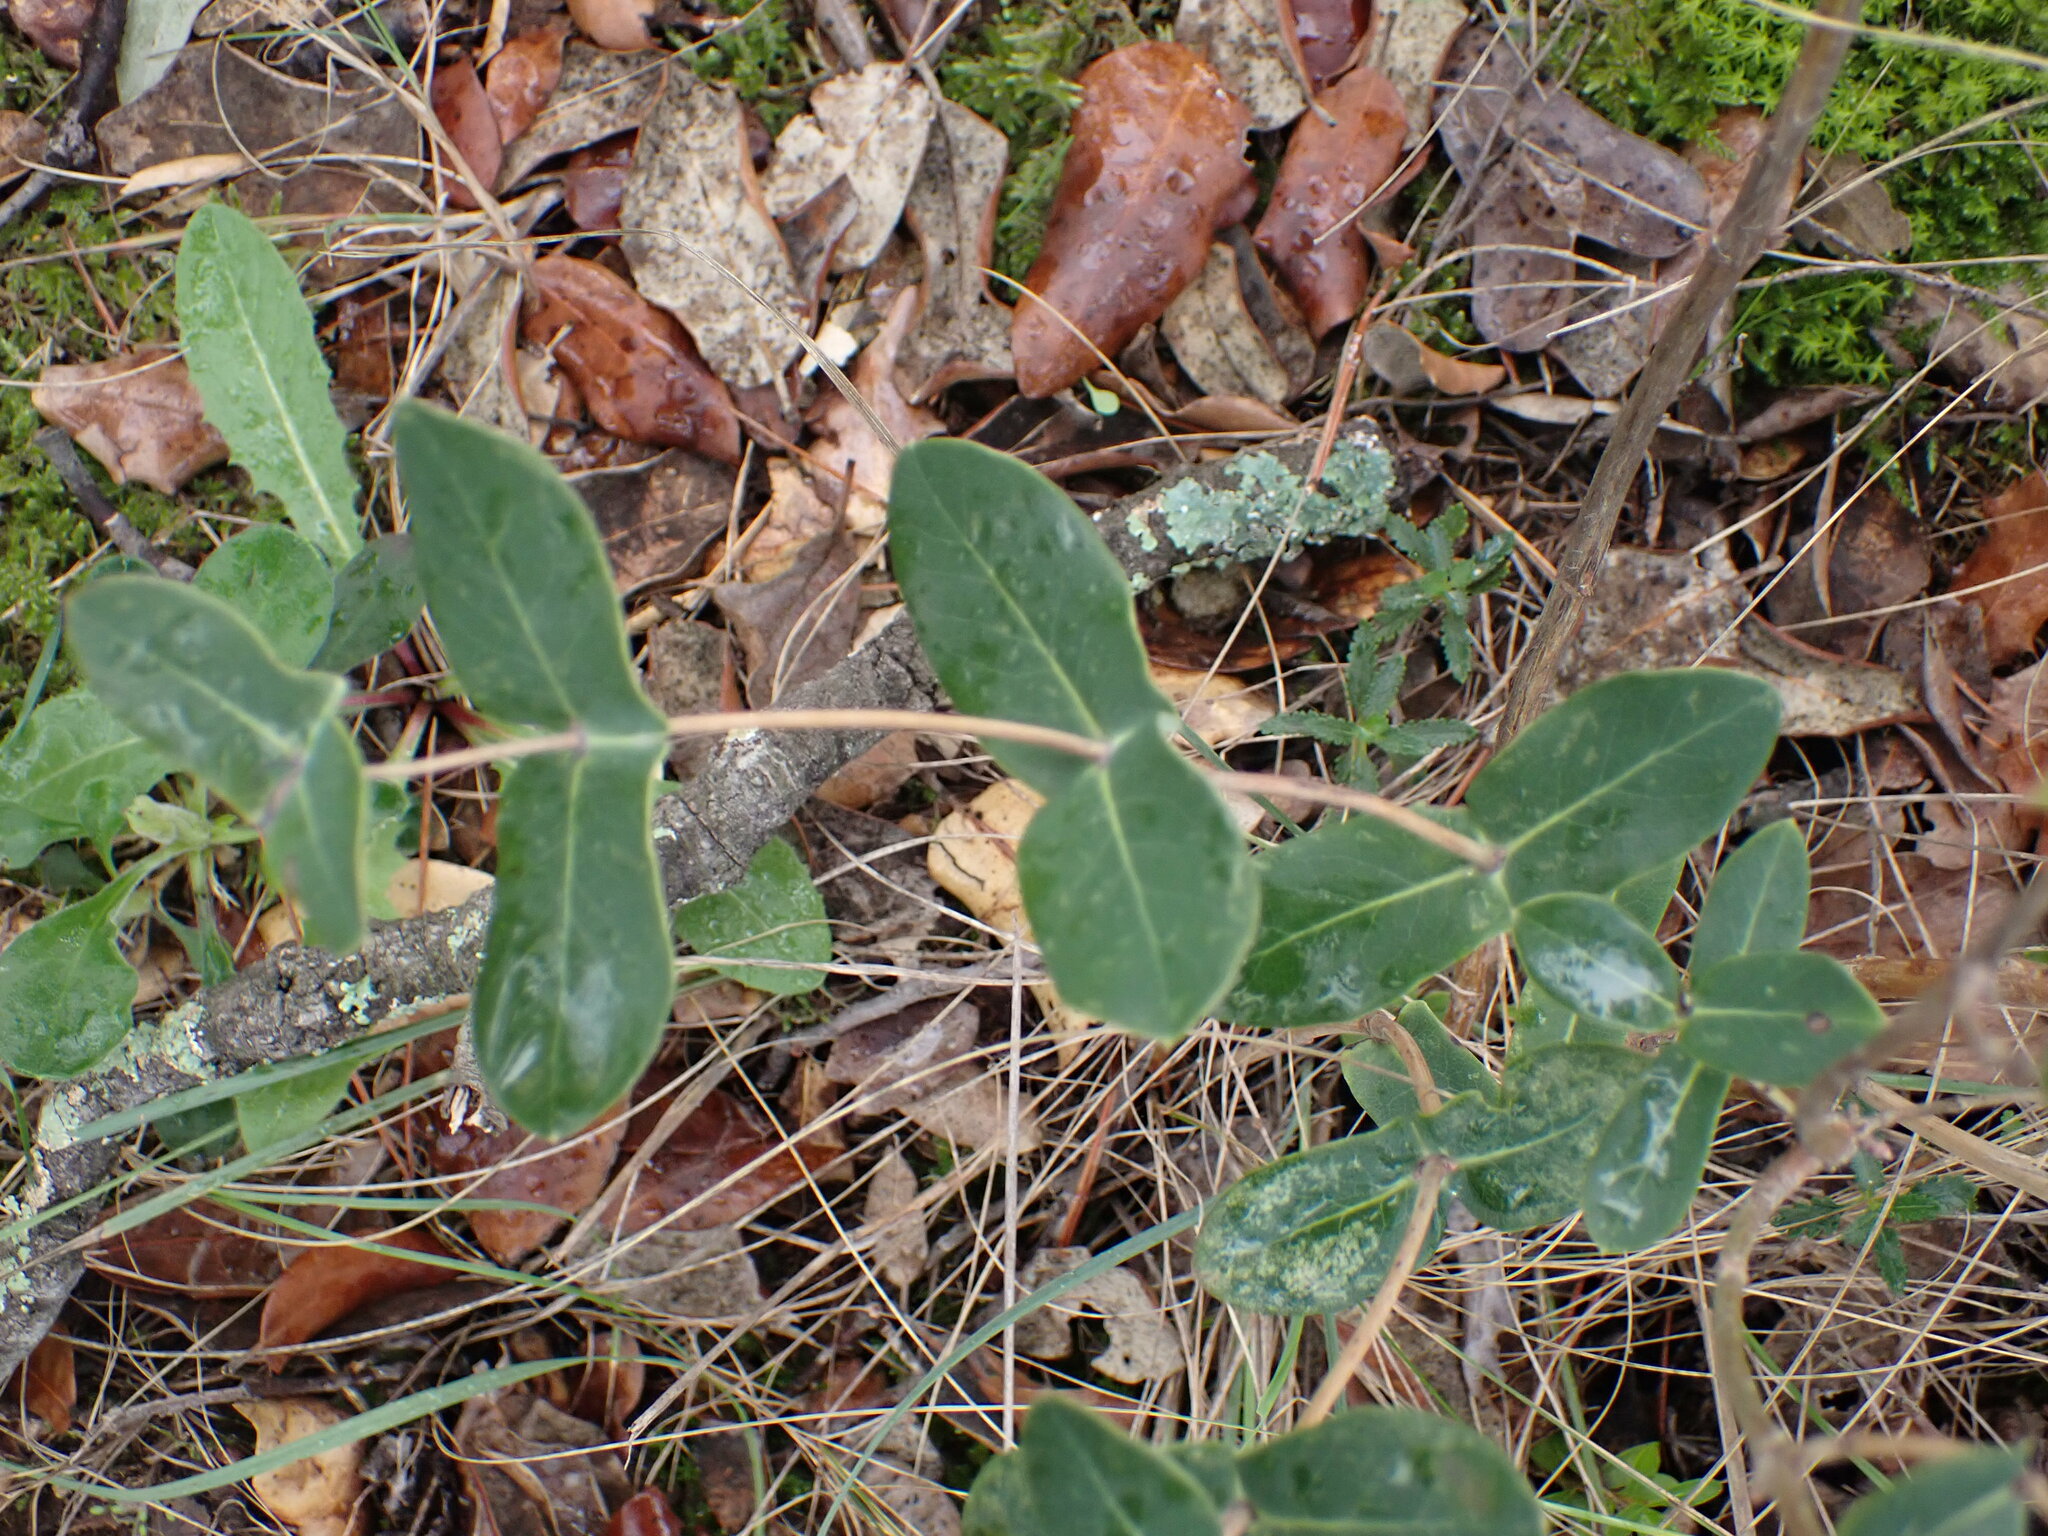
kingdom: Plantae
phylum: Tracheophyta
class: Magnoliopsida
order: Dipsacales
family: Caprifoliaceae
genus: Lonicera
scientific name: Lonicera implexa
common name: Minorca honeysuckle
